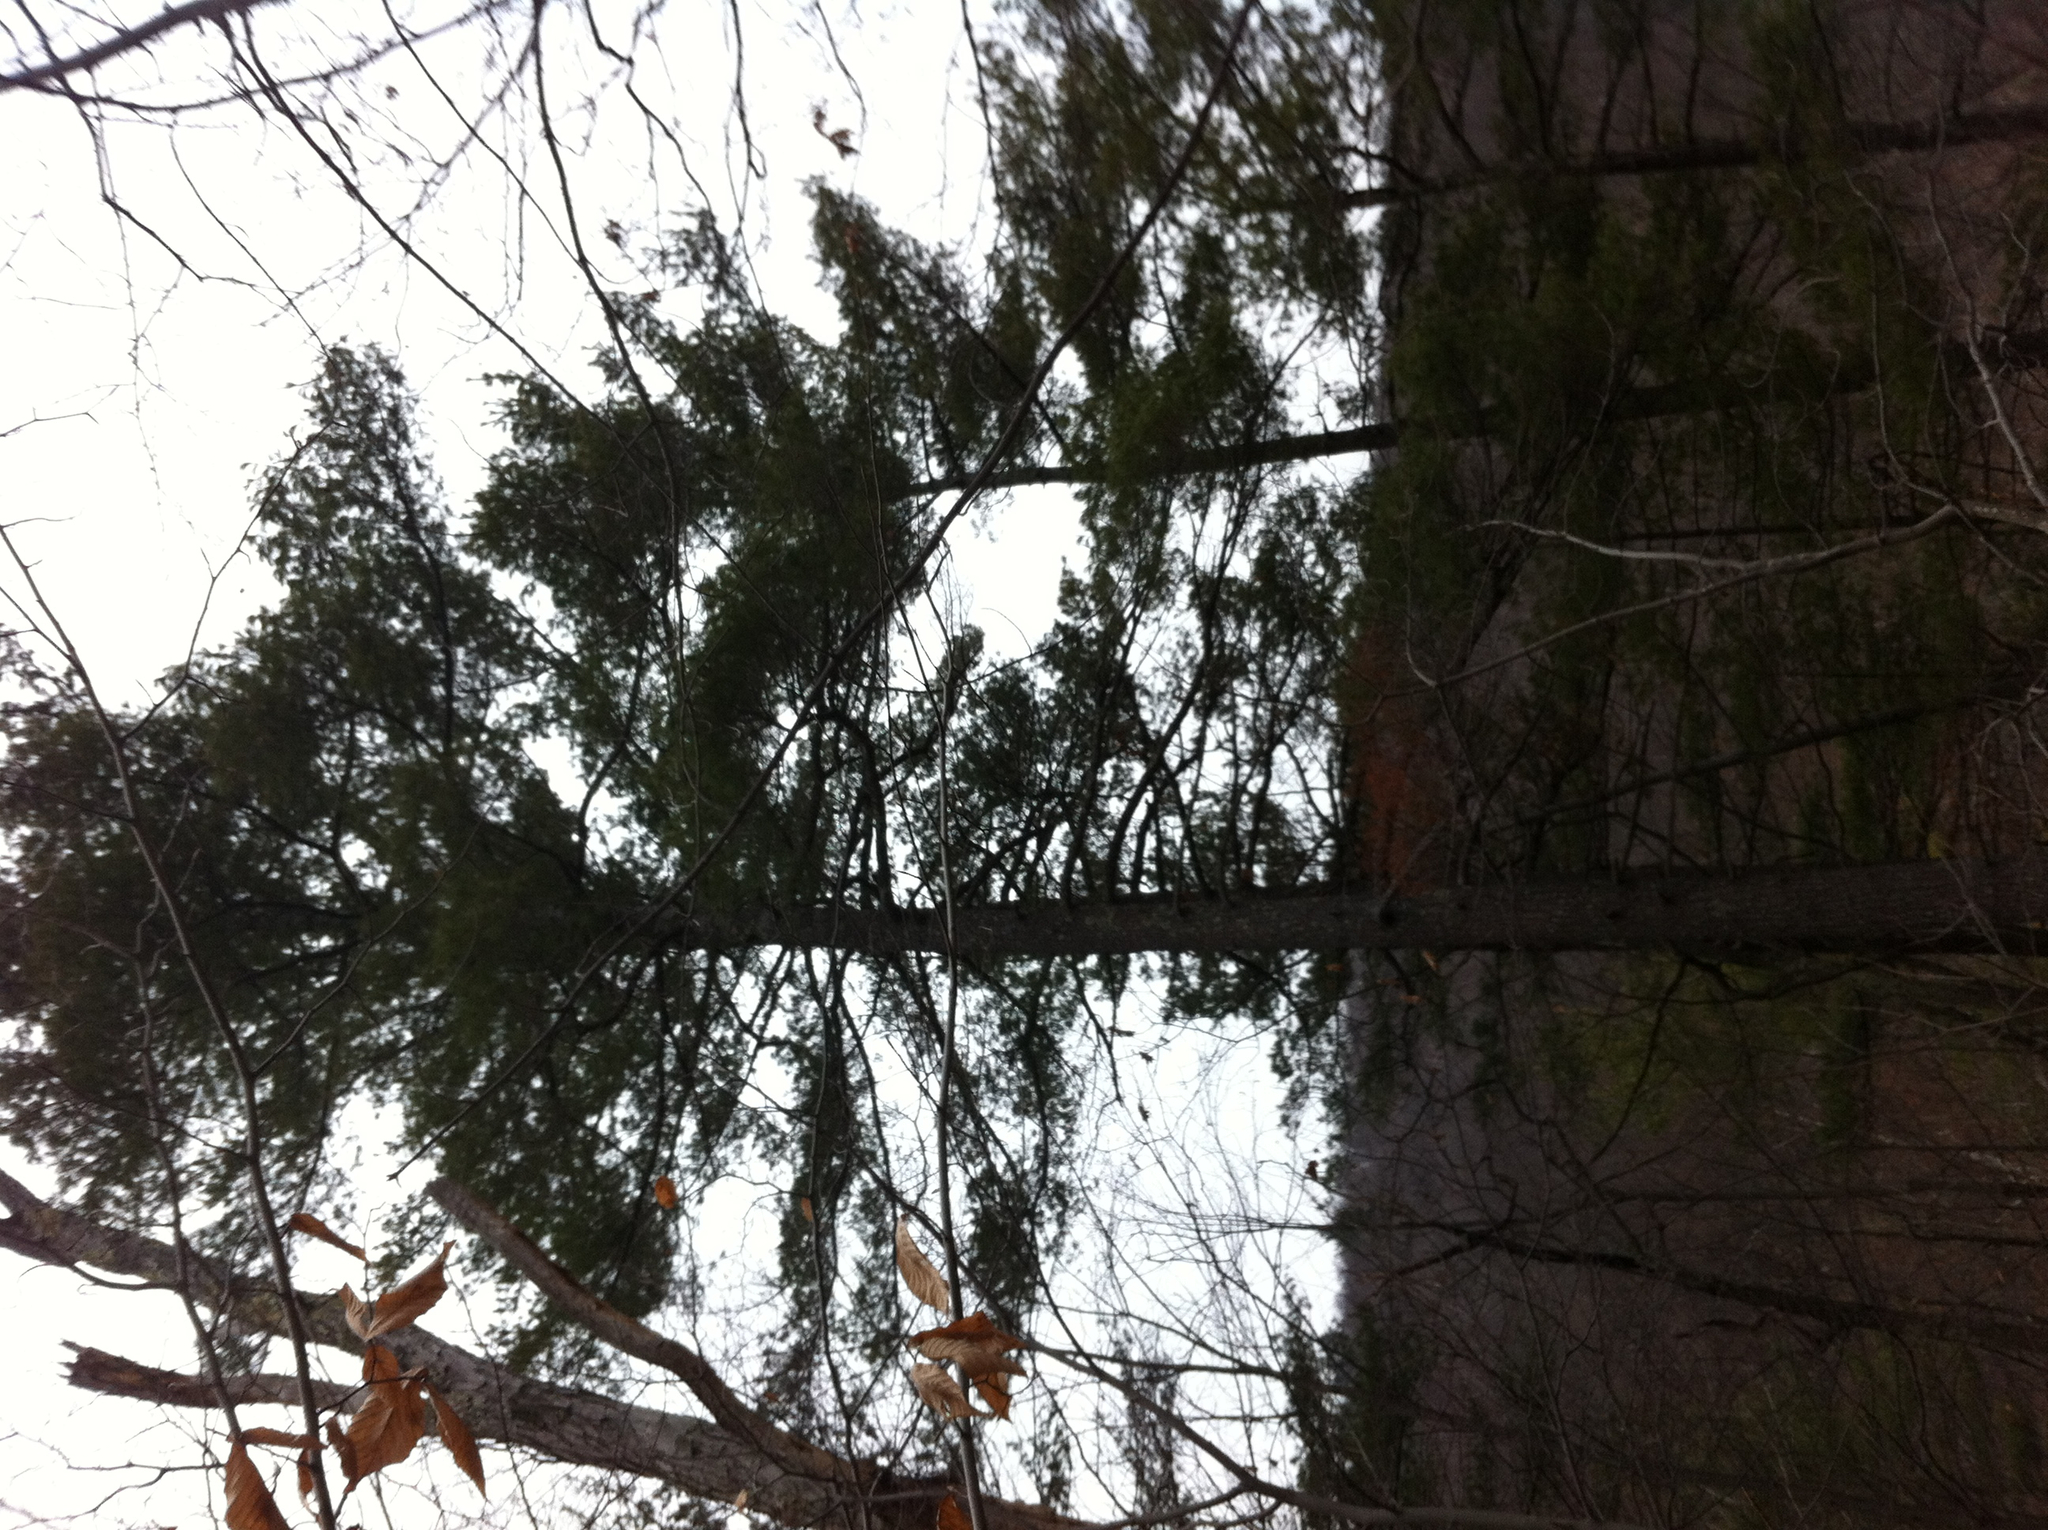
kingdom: Plantae
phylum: Tracheophyta
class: Pinopsida
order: Pinales
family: Pinaceae
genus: Pinus
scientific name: Pinus strobus
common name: Weymouth pine
